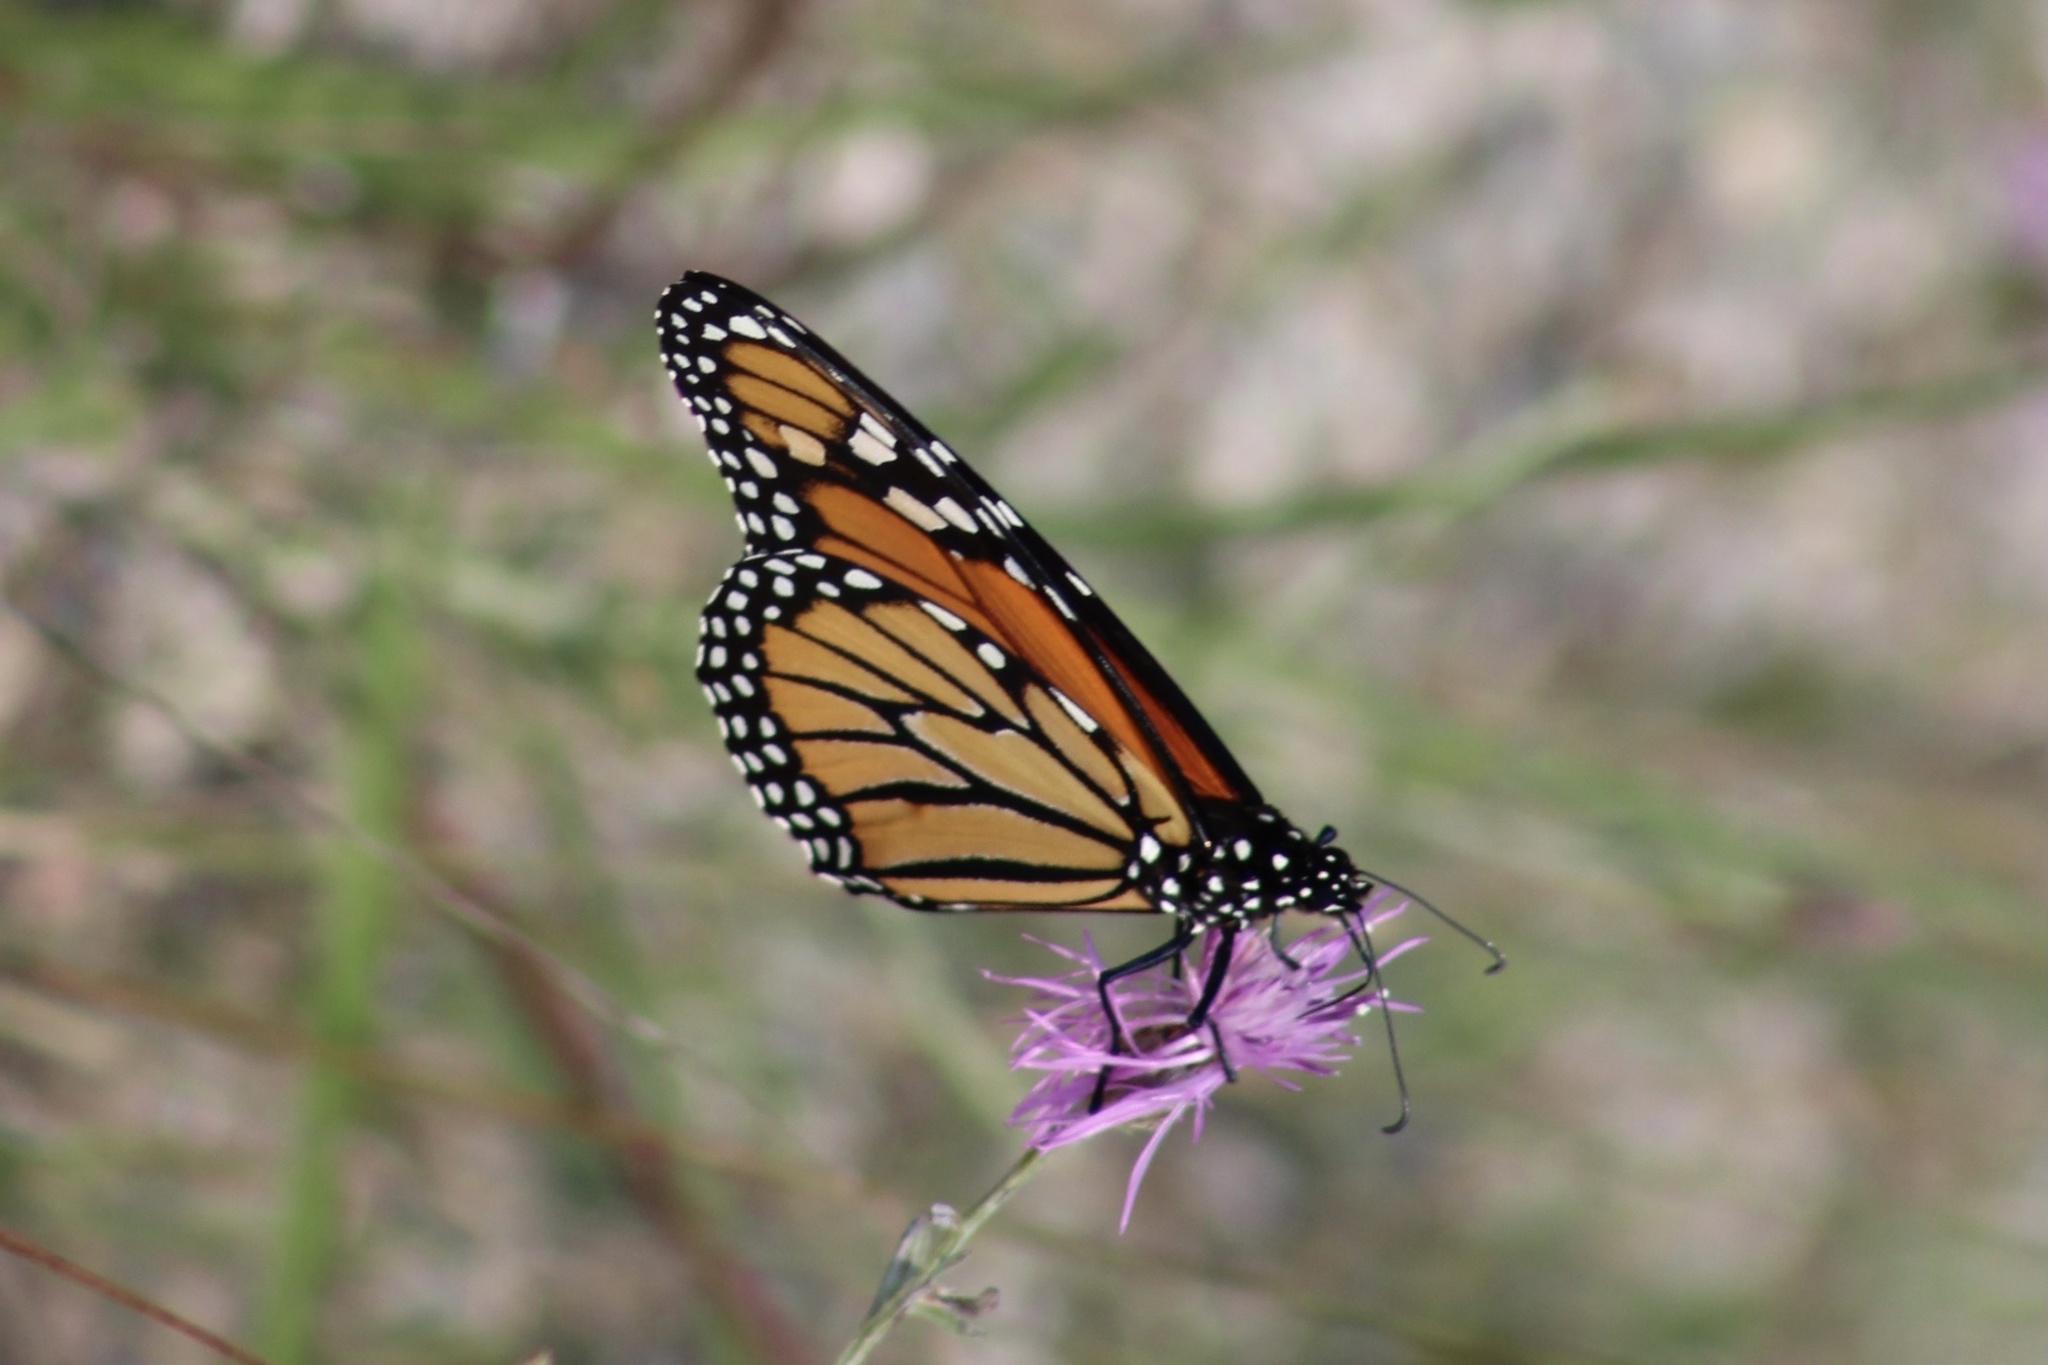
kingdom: Animalia
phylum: Arthropoda
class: Insecta
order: Lepidoptera
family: Nymphalidae
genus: Danaus
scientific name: Danaus plexippus
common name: Monarch
